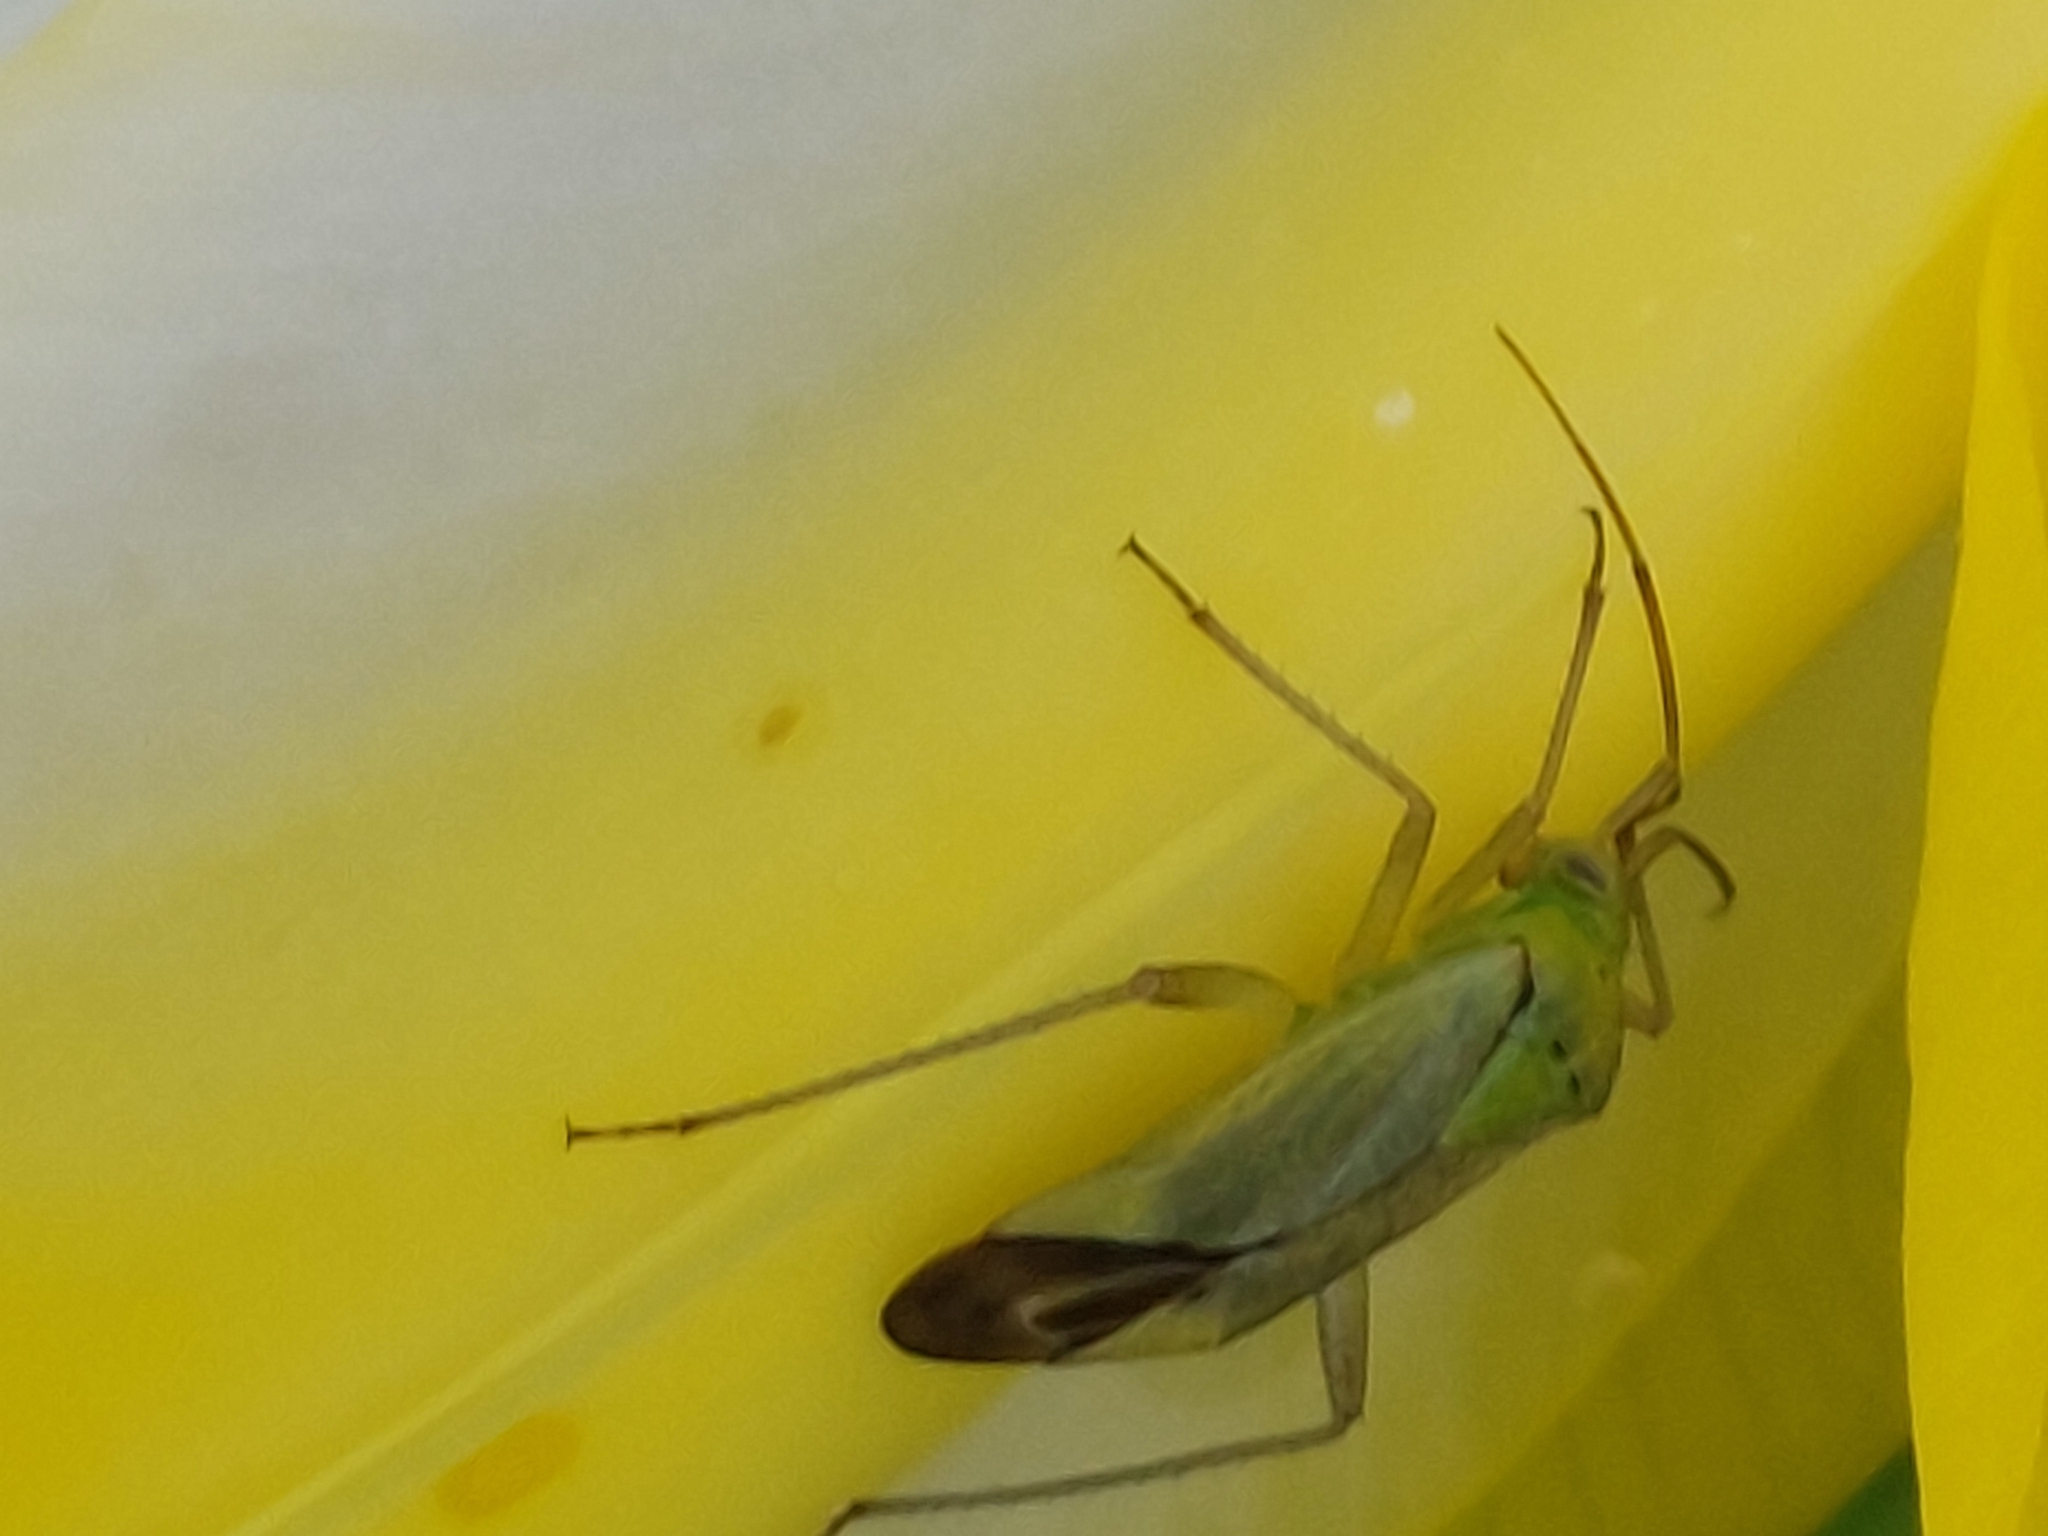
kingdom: Animalia
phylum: Arthropoda
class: Insecta
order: Hemiptera
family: Miridae
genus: Closterotomus
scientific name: Closterotomus norvegicus
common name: Plant bug
